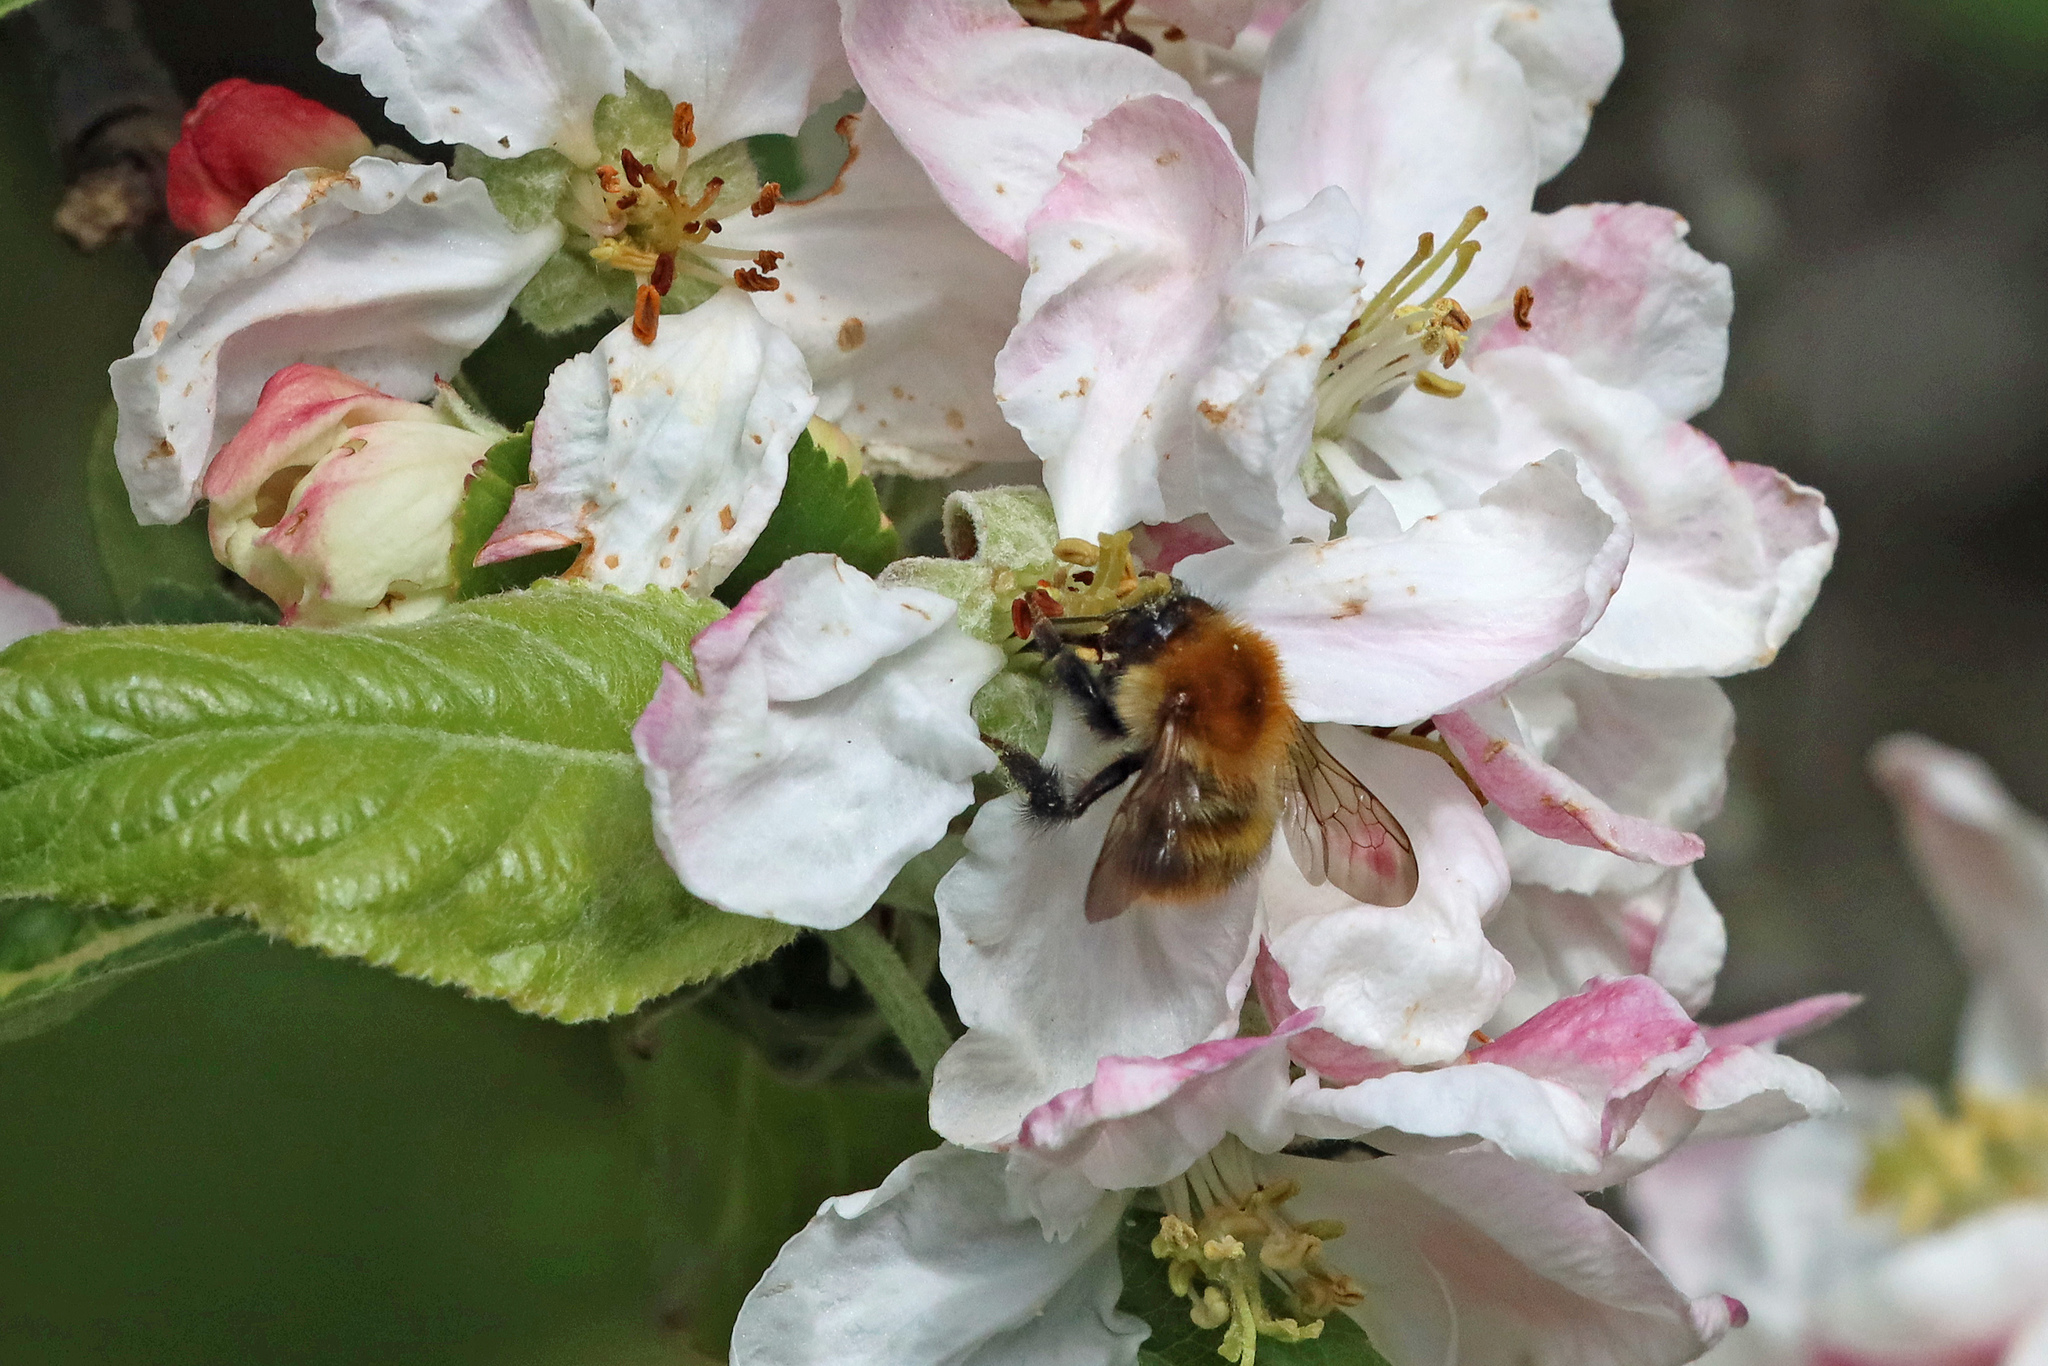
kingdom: Animalia
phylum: Arthropoda
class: Insecta
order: Hymenoptera
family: Apidae
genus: Bombus
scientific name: Bombus pascuorum
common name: Common carder bee
